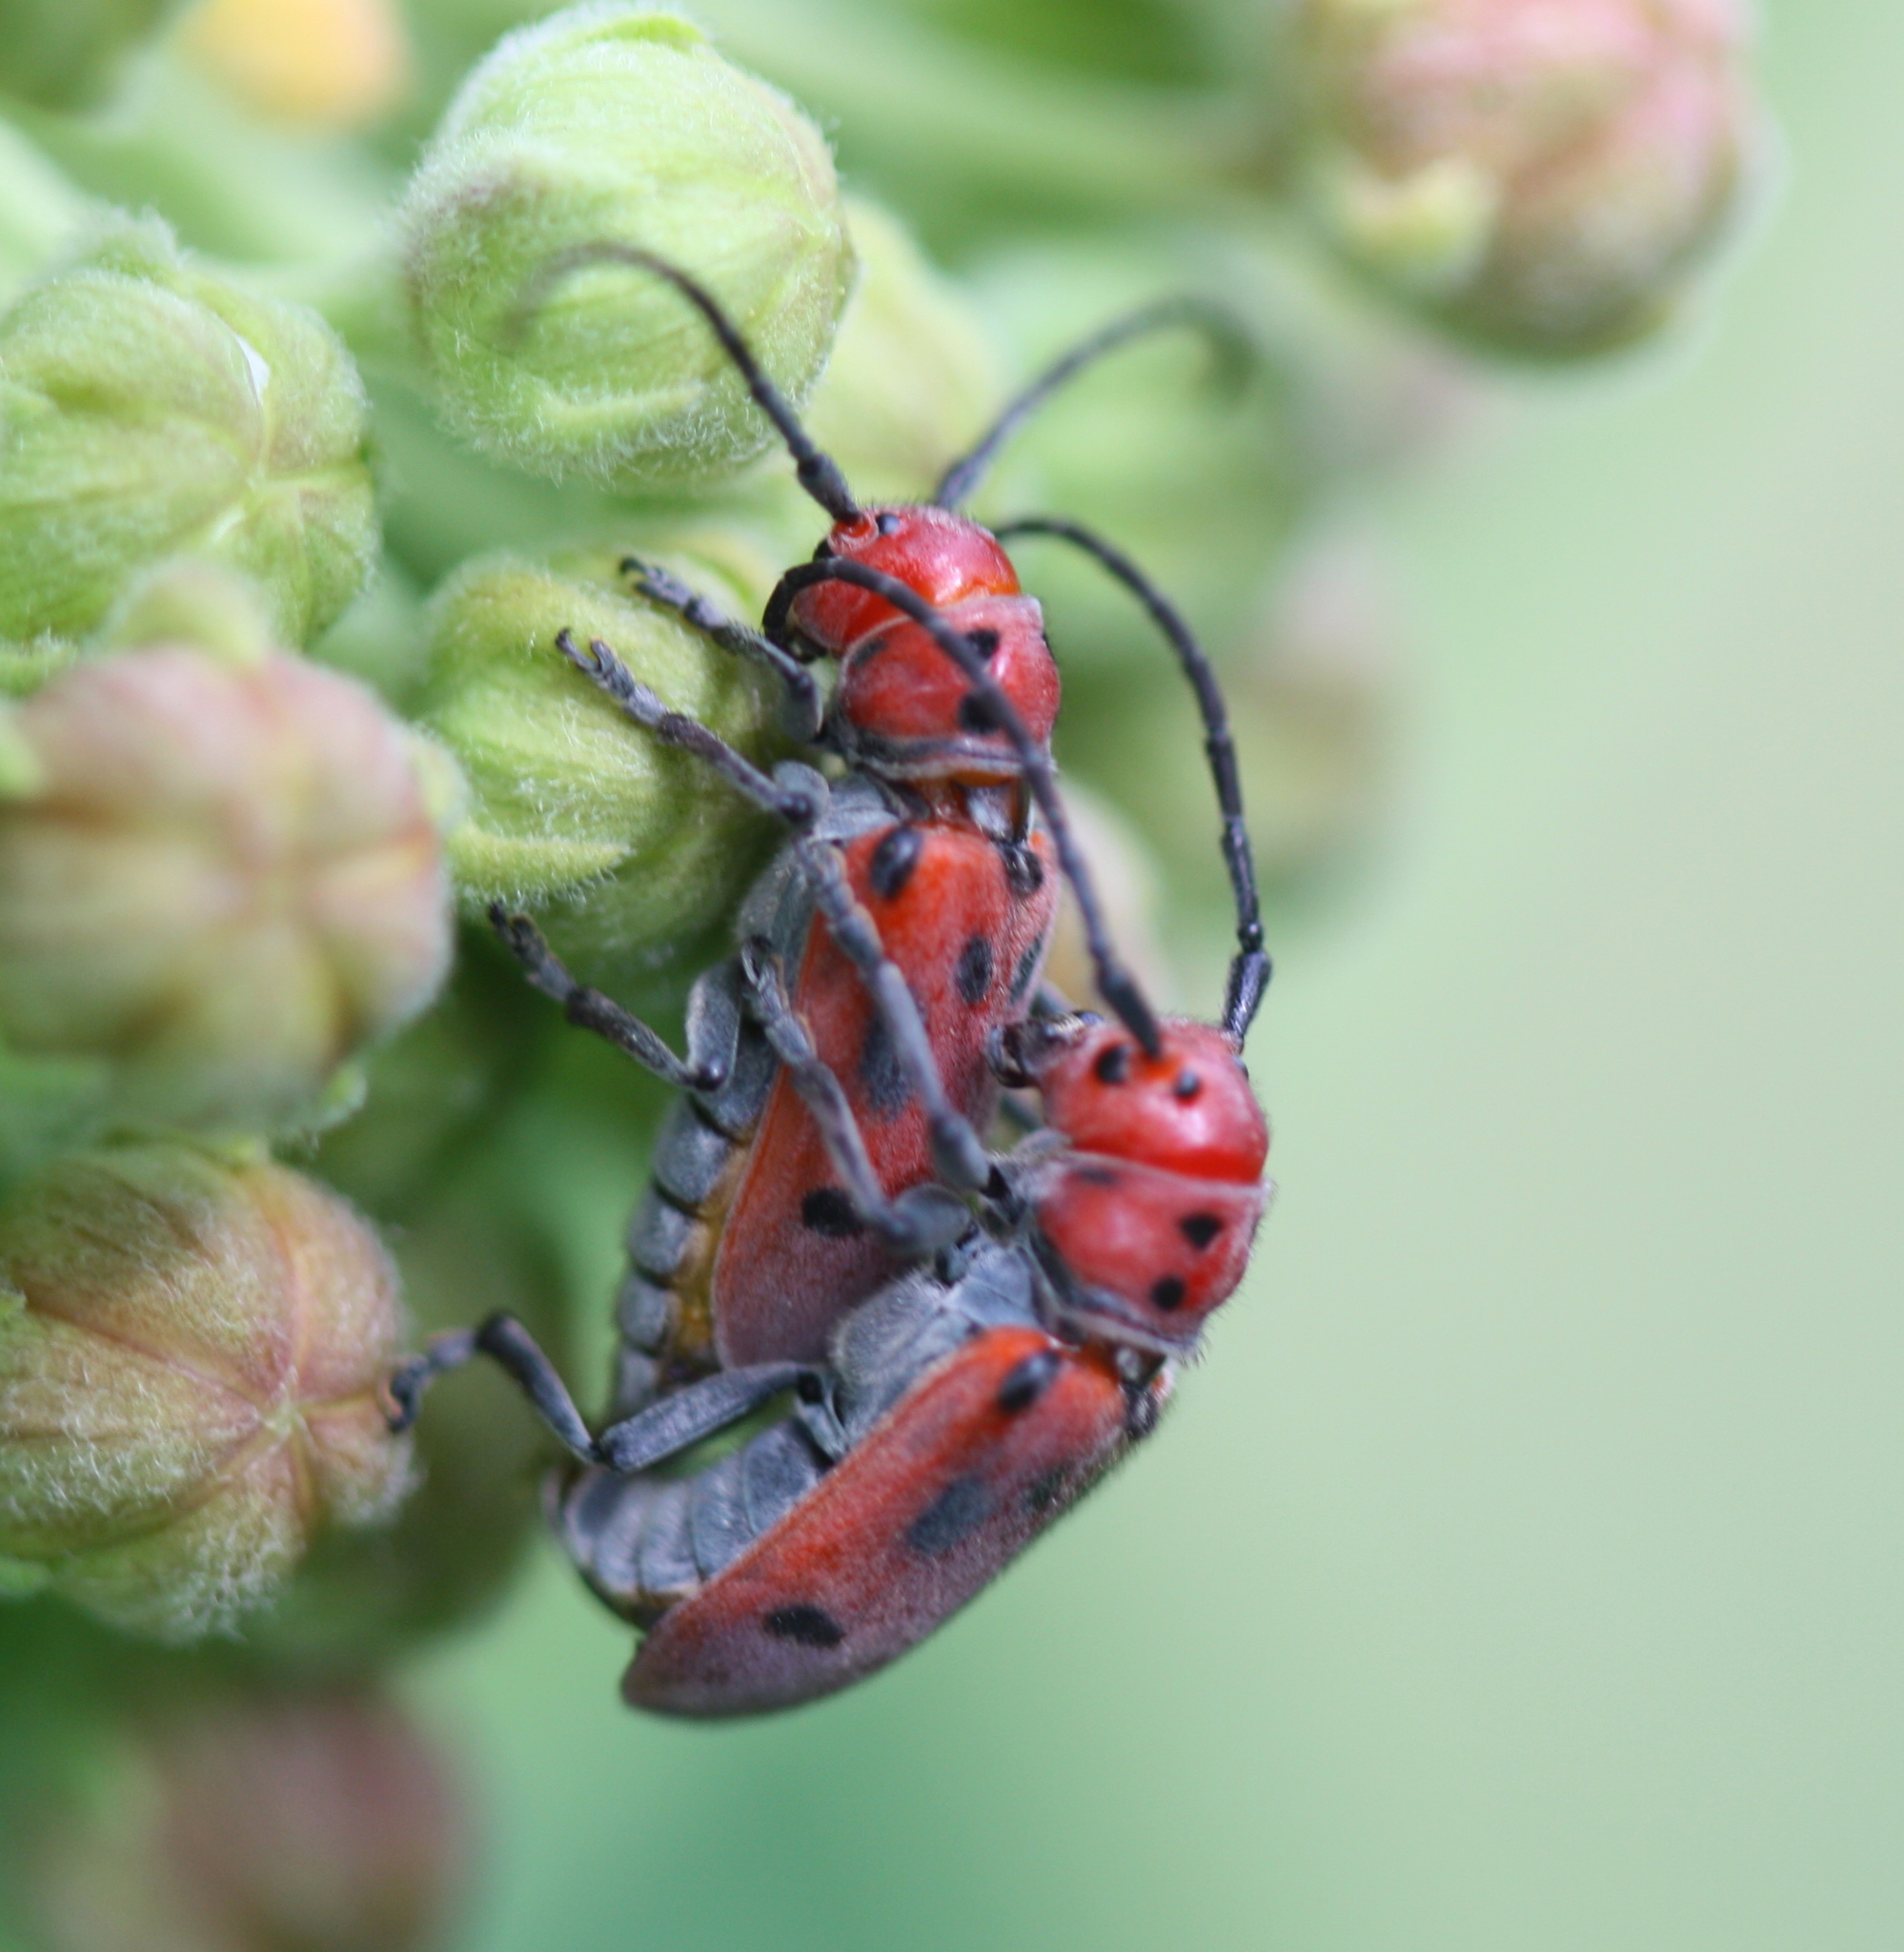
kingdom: Animalia
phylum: Arthropoda
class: Insecta
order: Coleoptera
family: Cerambycidae
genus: Tetraopes
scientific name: Tetraopes tetrophthalmus
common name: Red milkweed beetle
